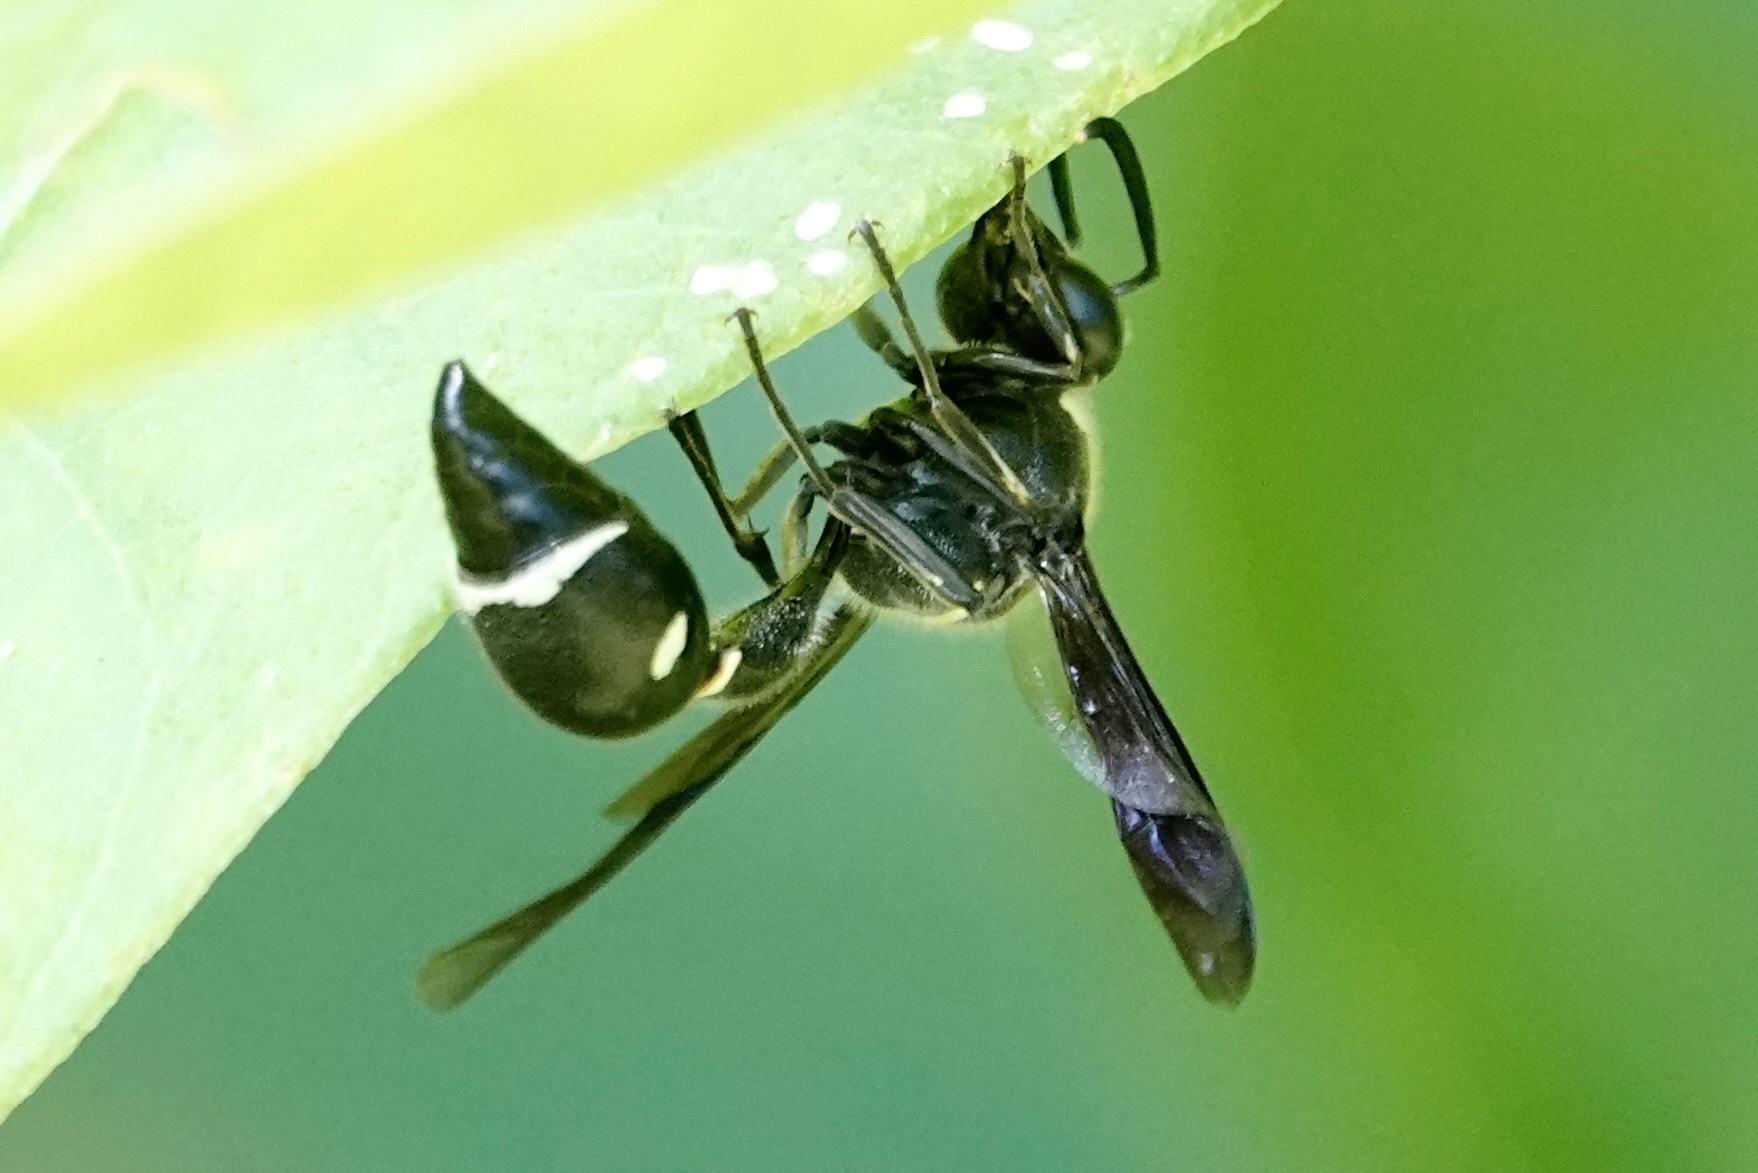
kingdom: Animalia
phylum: Arthropoda
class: Insecta
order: Hymenoptera
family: Vespidae
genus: Eumenes
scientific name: Eumenes fraternus
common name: Fraternal potter wasp
